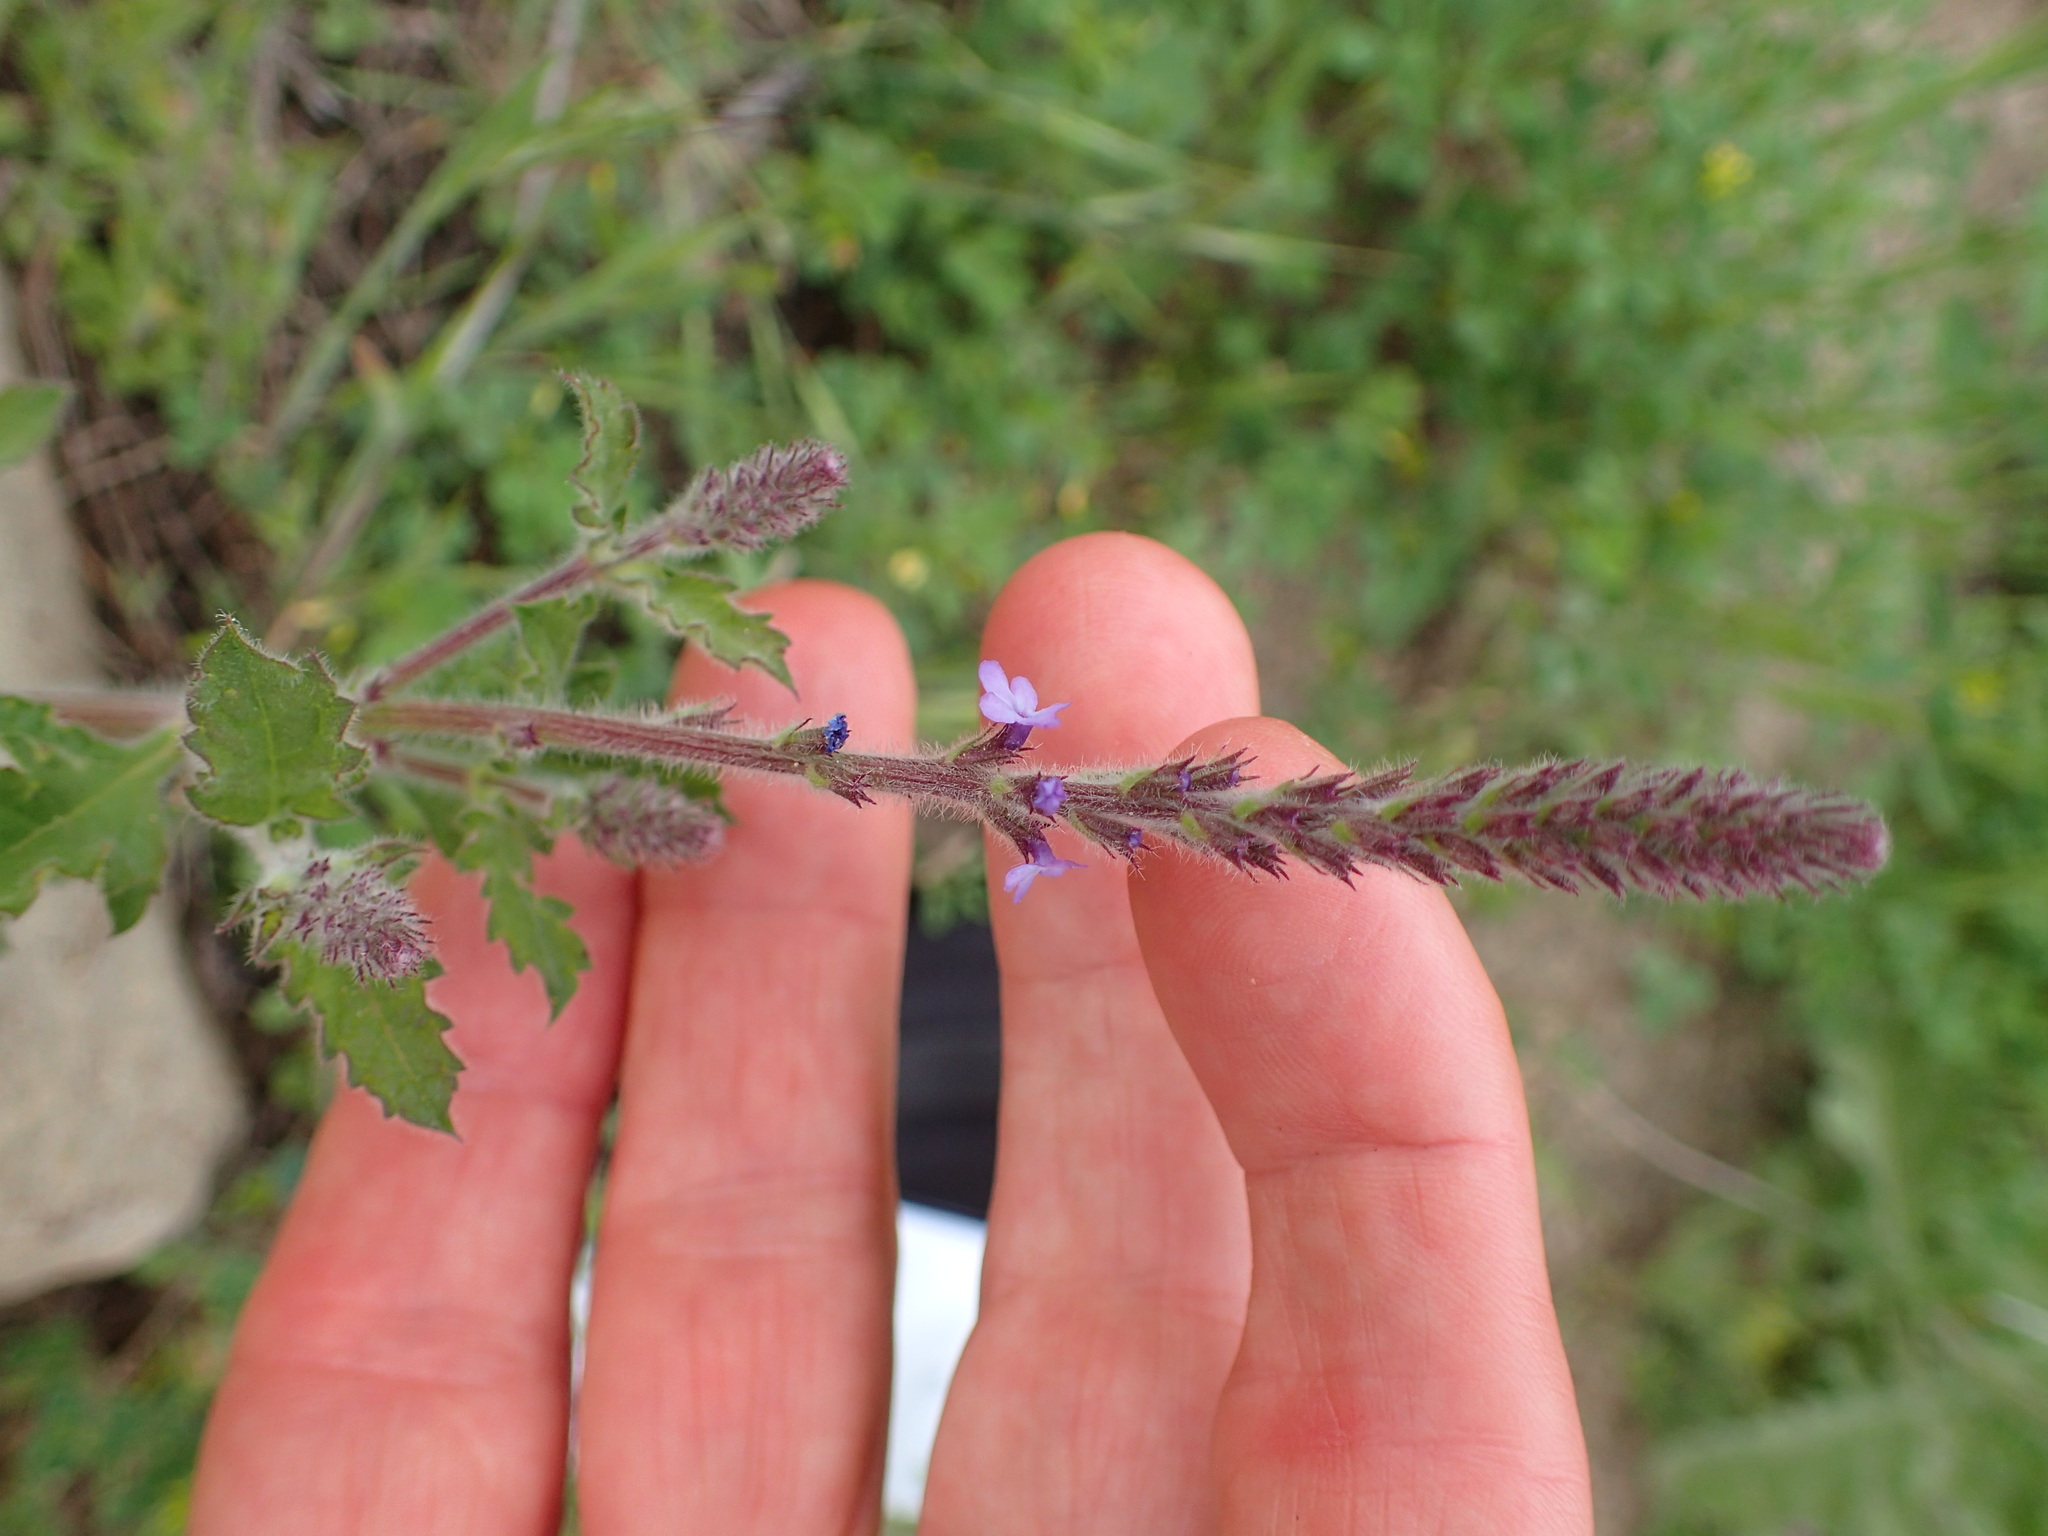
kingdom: Plantae
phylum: Tracheophyta
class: Magnoliopsida
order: Lamiales
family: Verbenaceae
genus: Verbena
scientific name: Verbena lasiostachys
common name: Vervain
